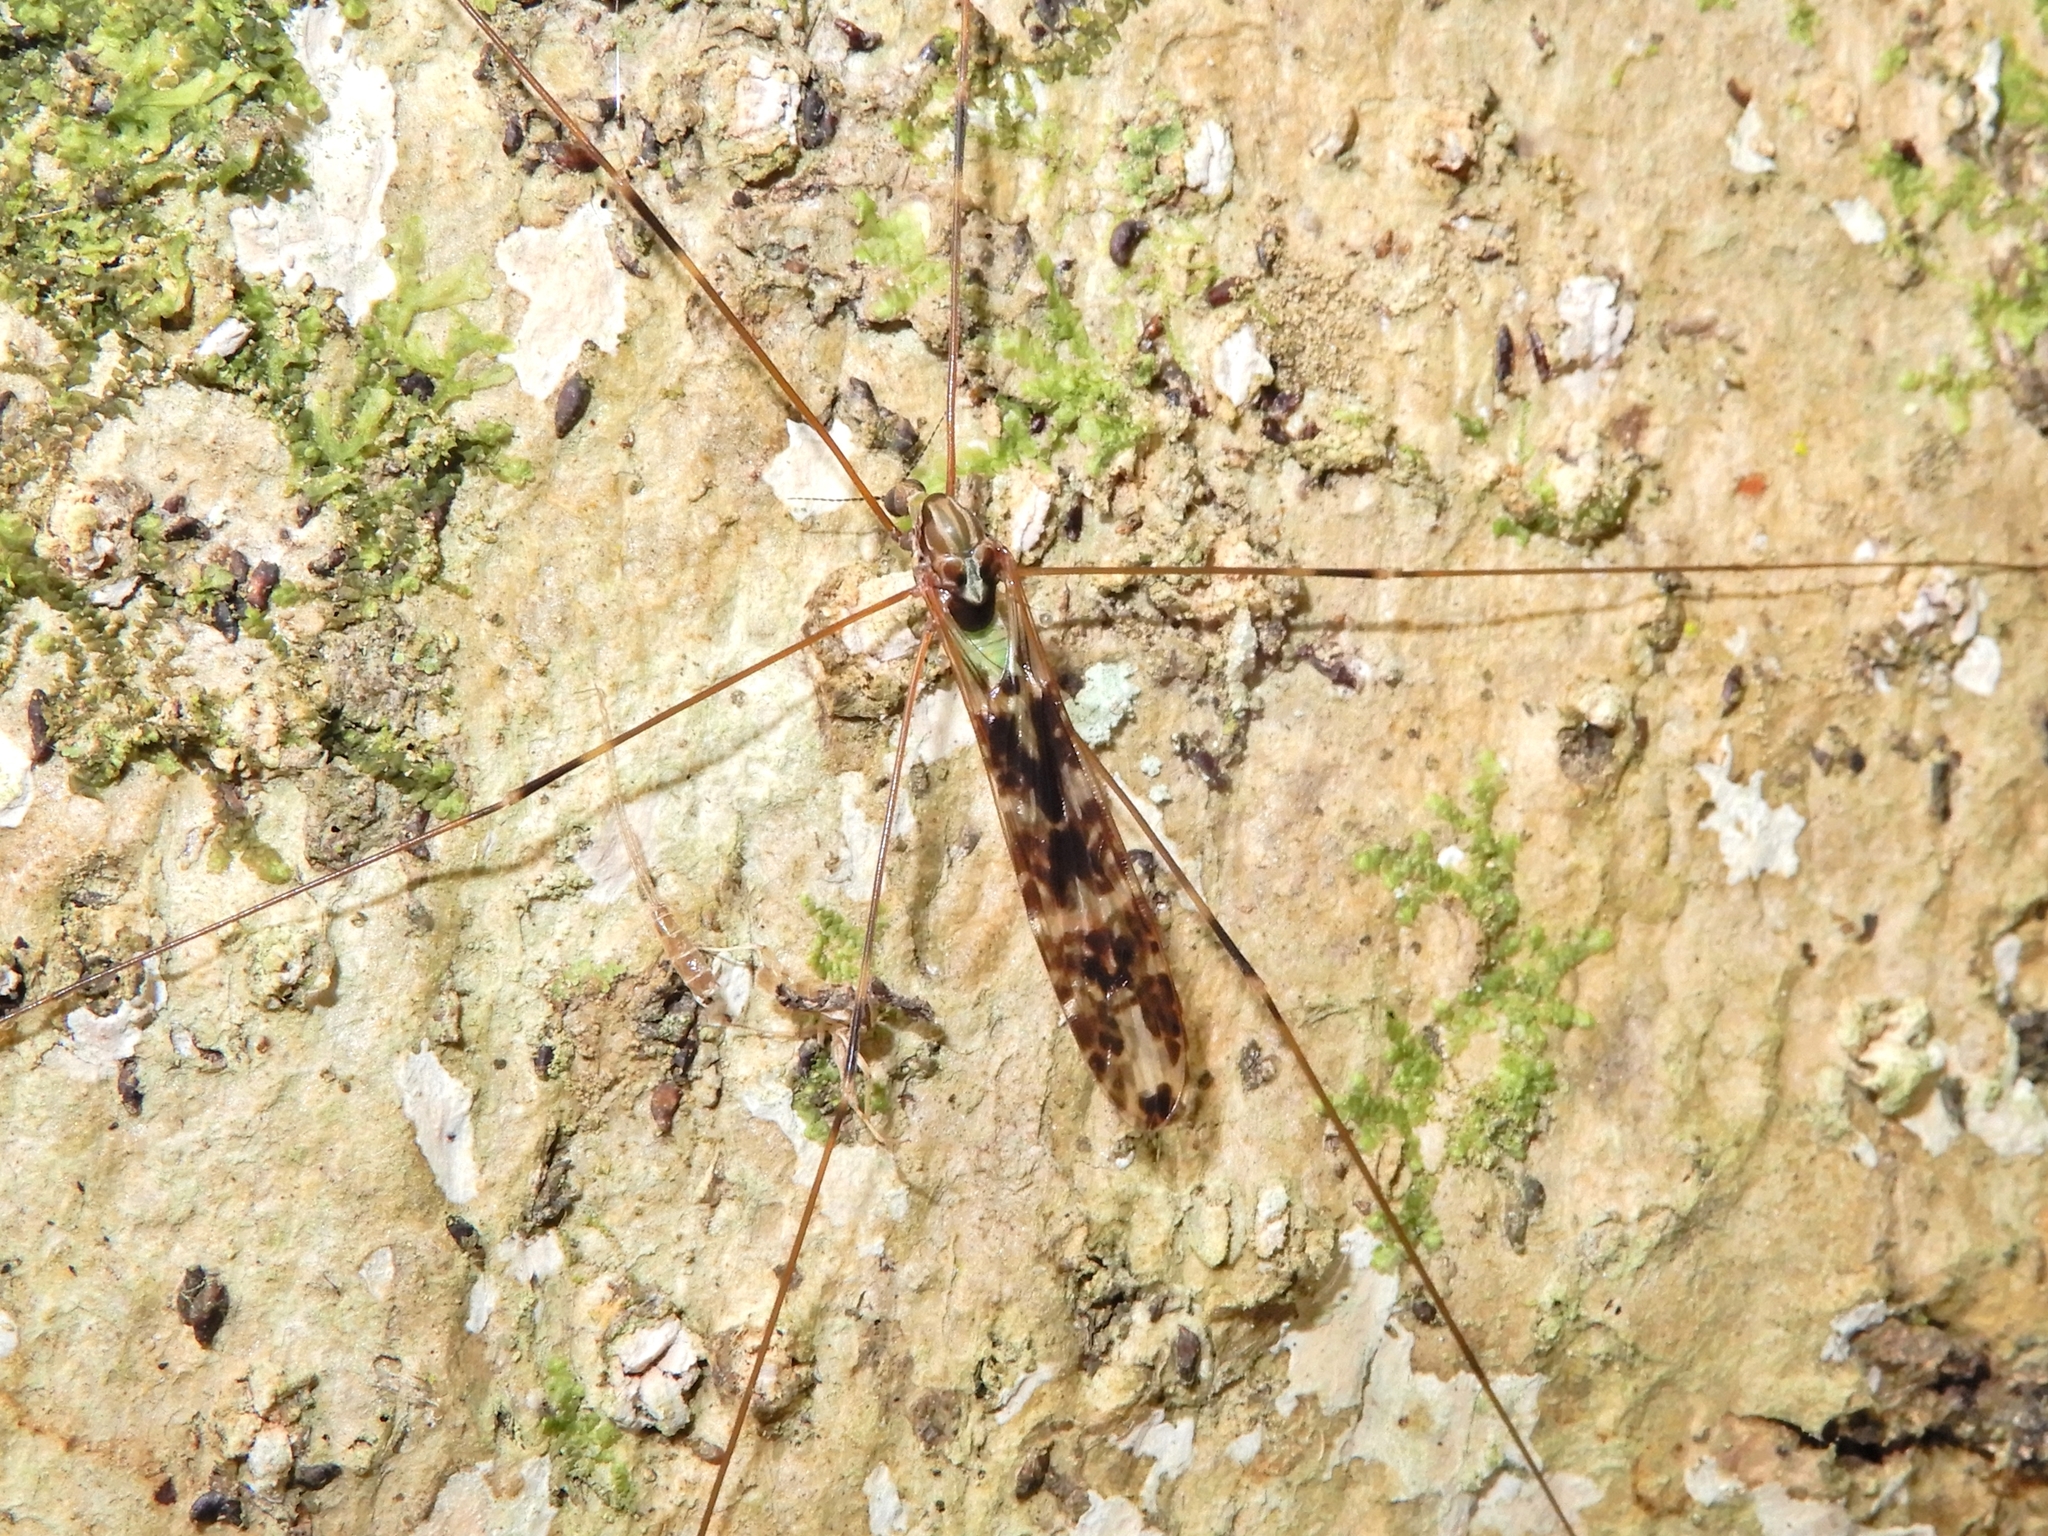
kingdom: Animalia
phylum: Arthropoda
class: Insecta
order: Diptera
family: Limoniidae
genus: Discobola
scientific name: Discobola dohrni
